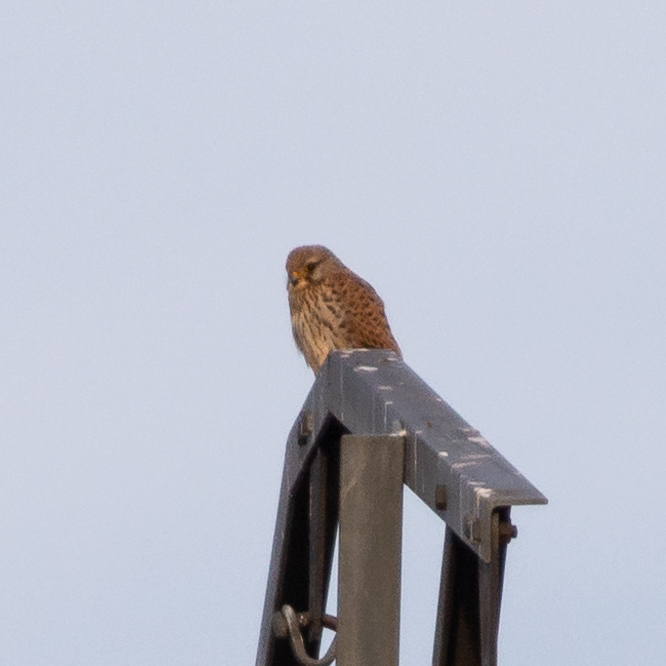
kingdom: Animalia
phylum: Chordata
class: Aves
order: Falconiformes
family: Falconidae
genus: Falco
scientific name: Falco tinnunculus
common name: Common kestrel
